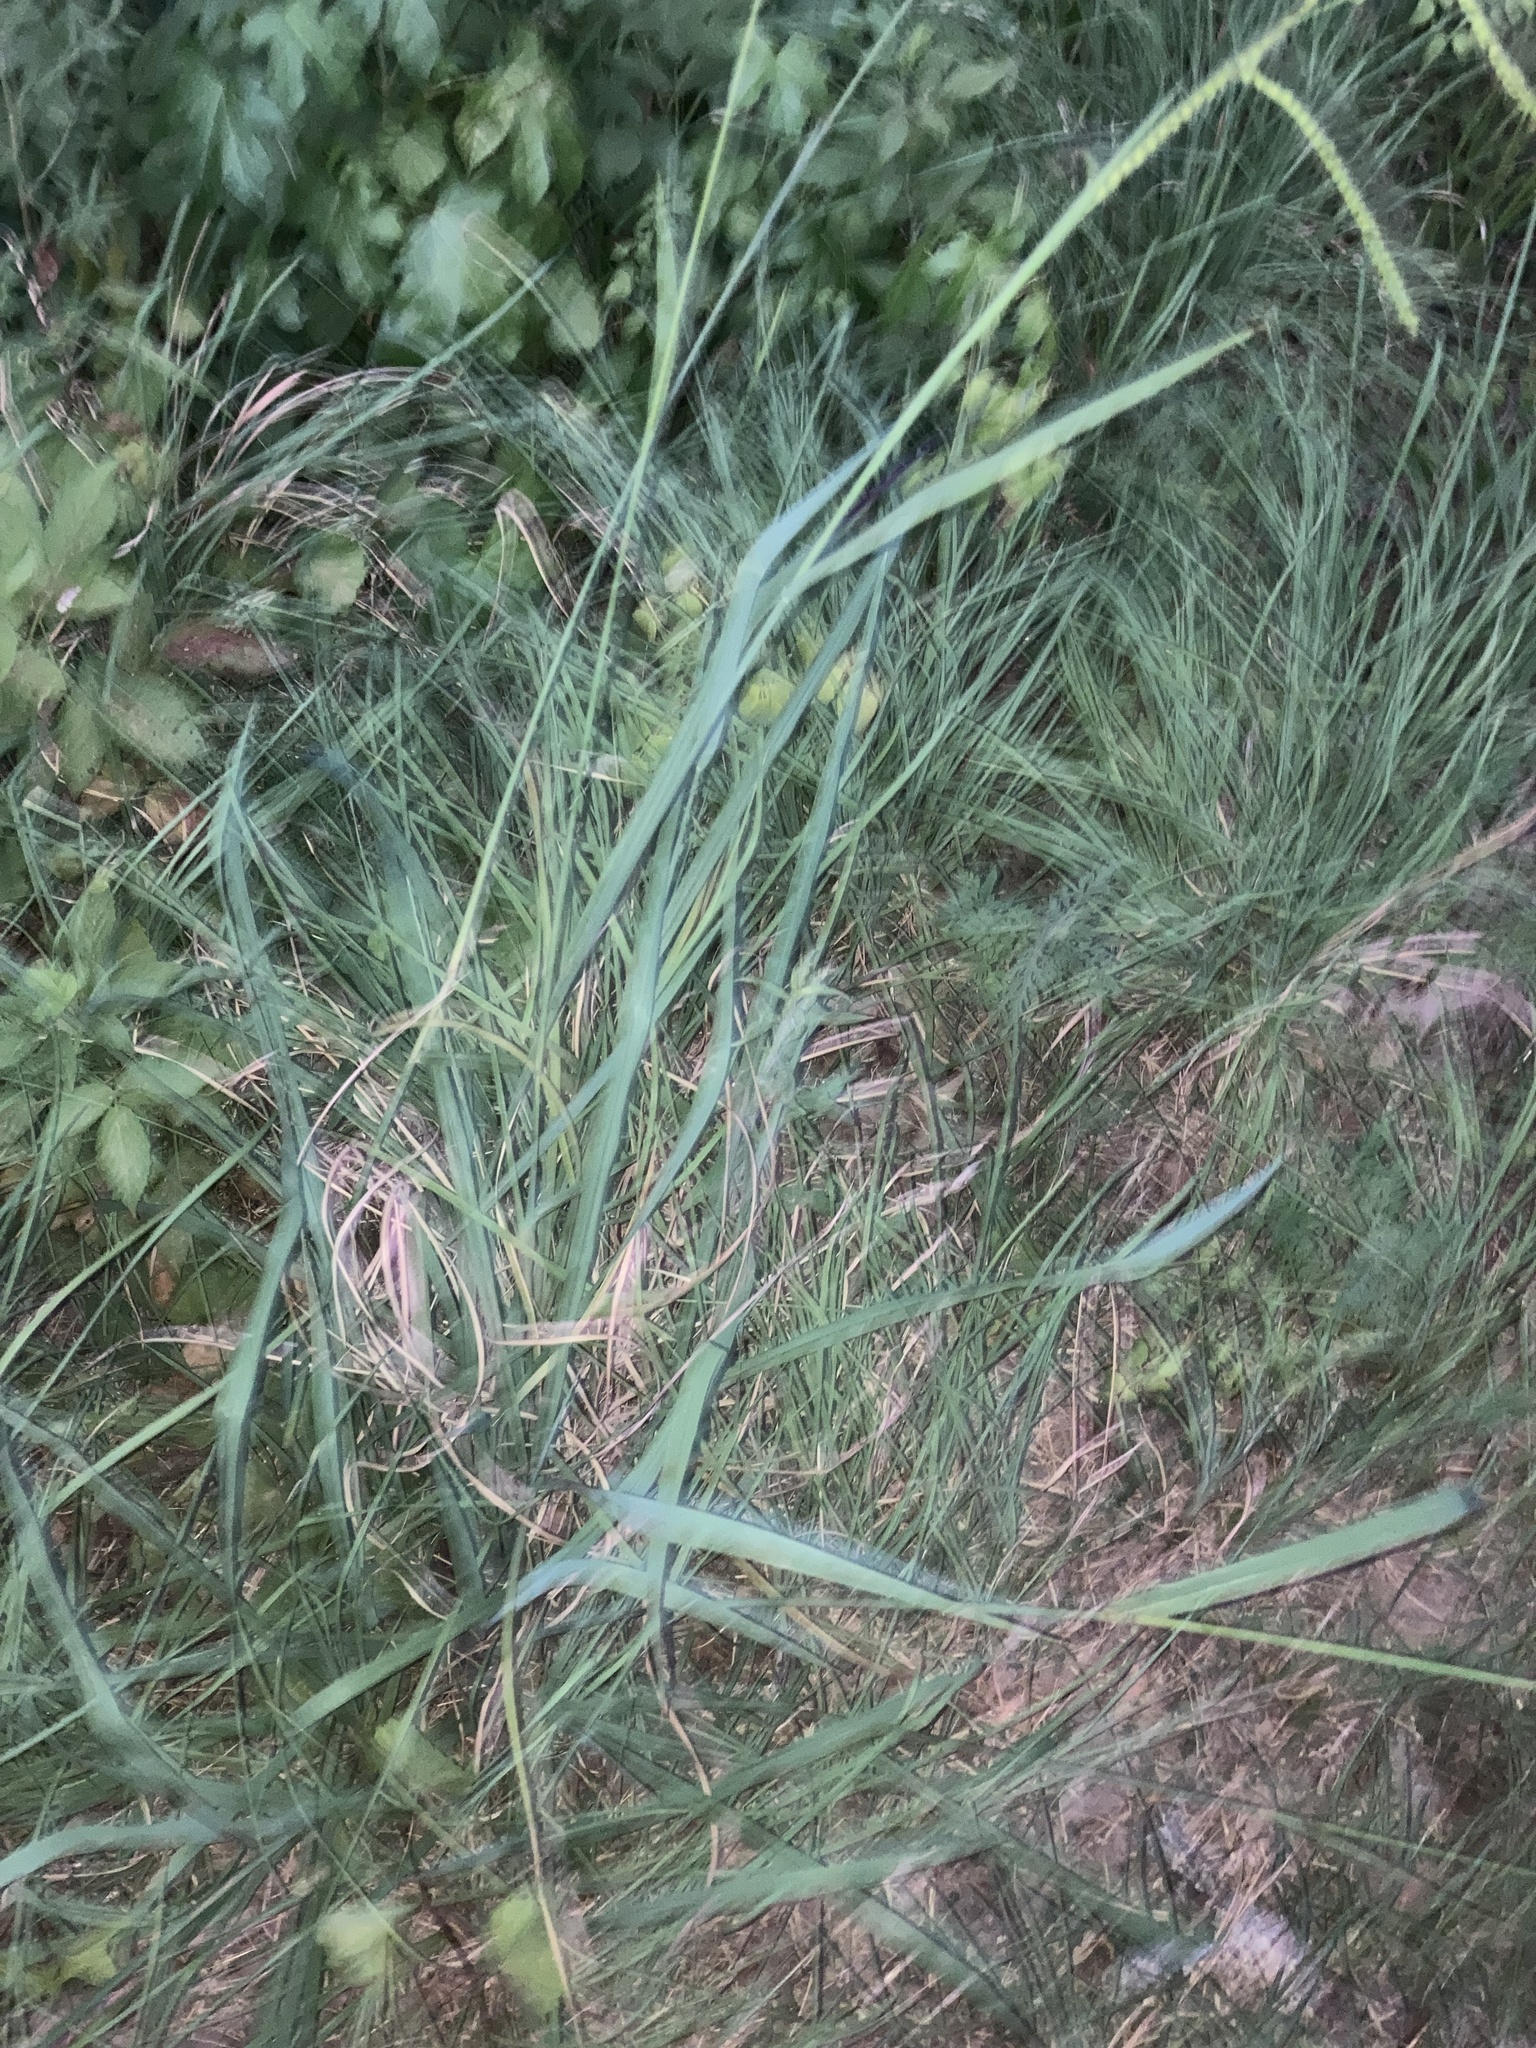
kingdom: Plantae
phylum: Tracheophyta
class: Liliopsida
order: Poales
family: Poaceae
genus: Paspalum
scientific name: Paspalum dilatatum
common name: Dallisgrass
